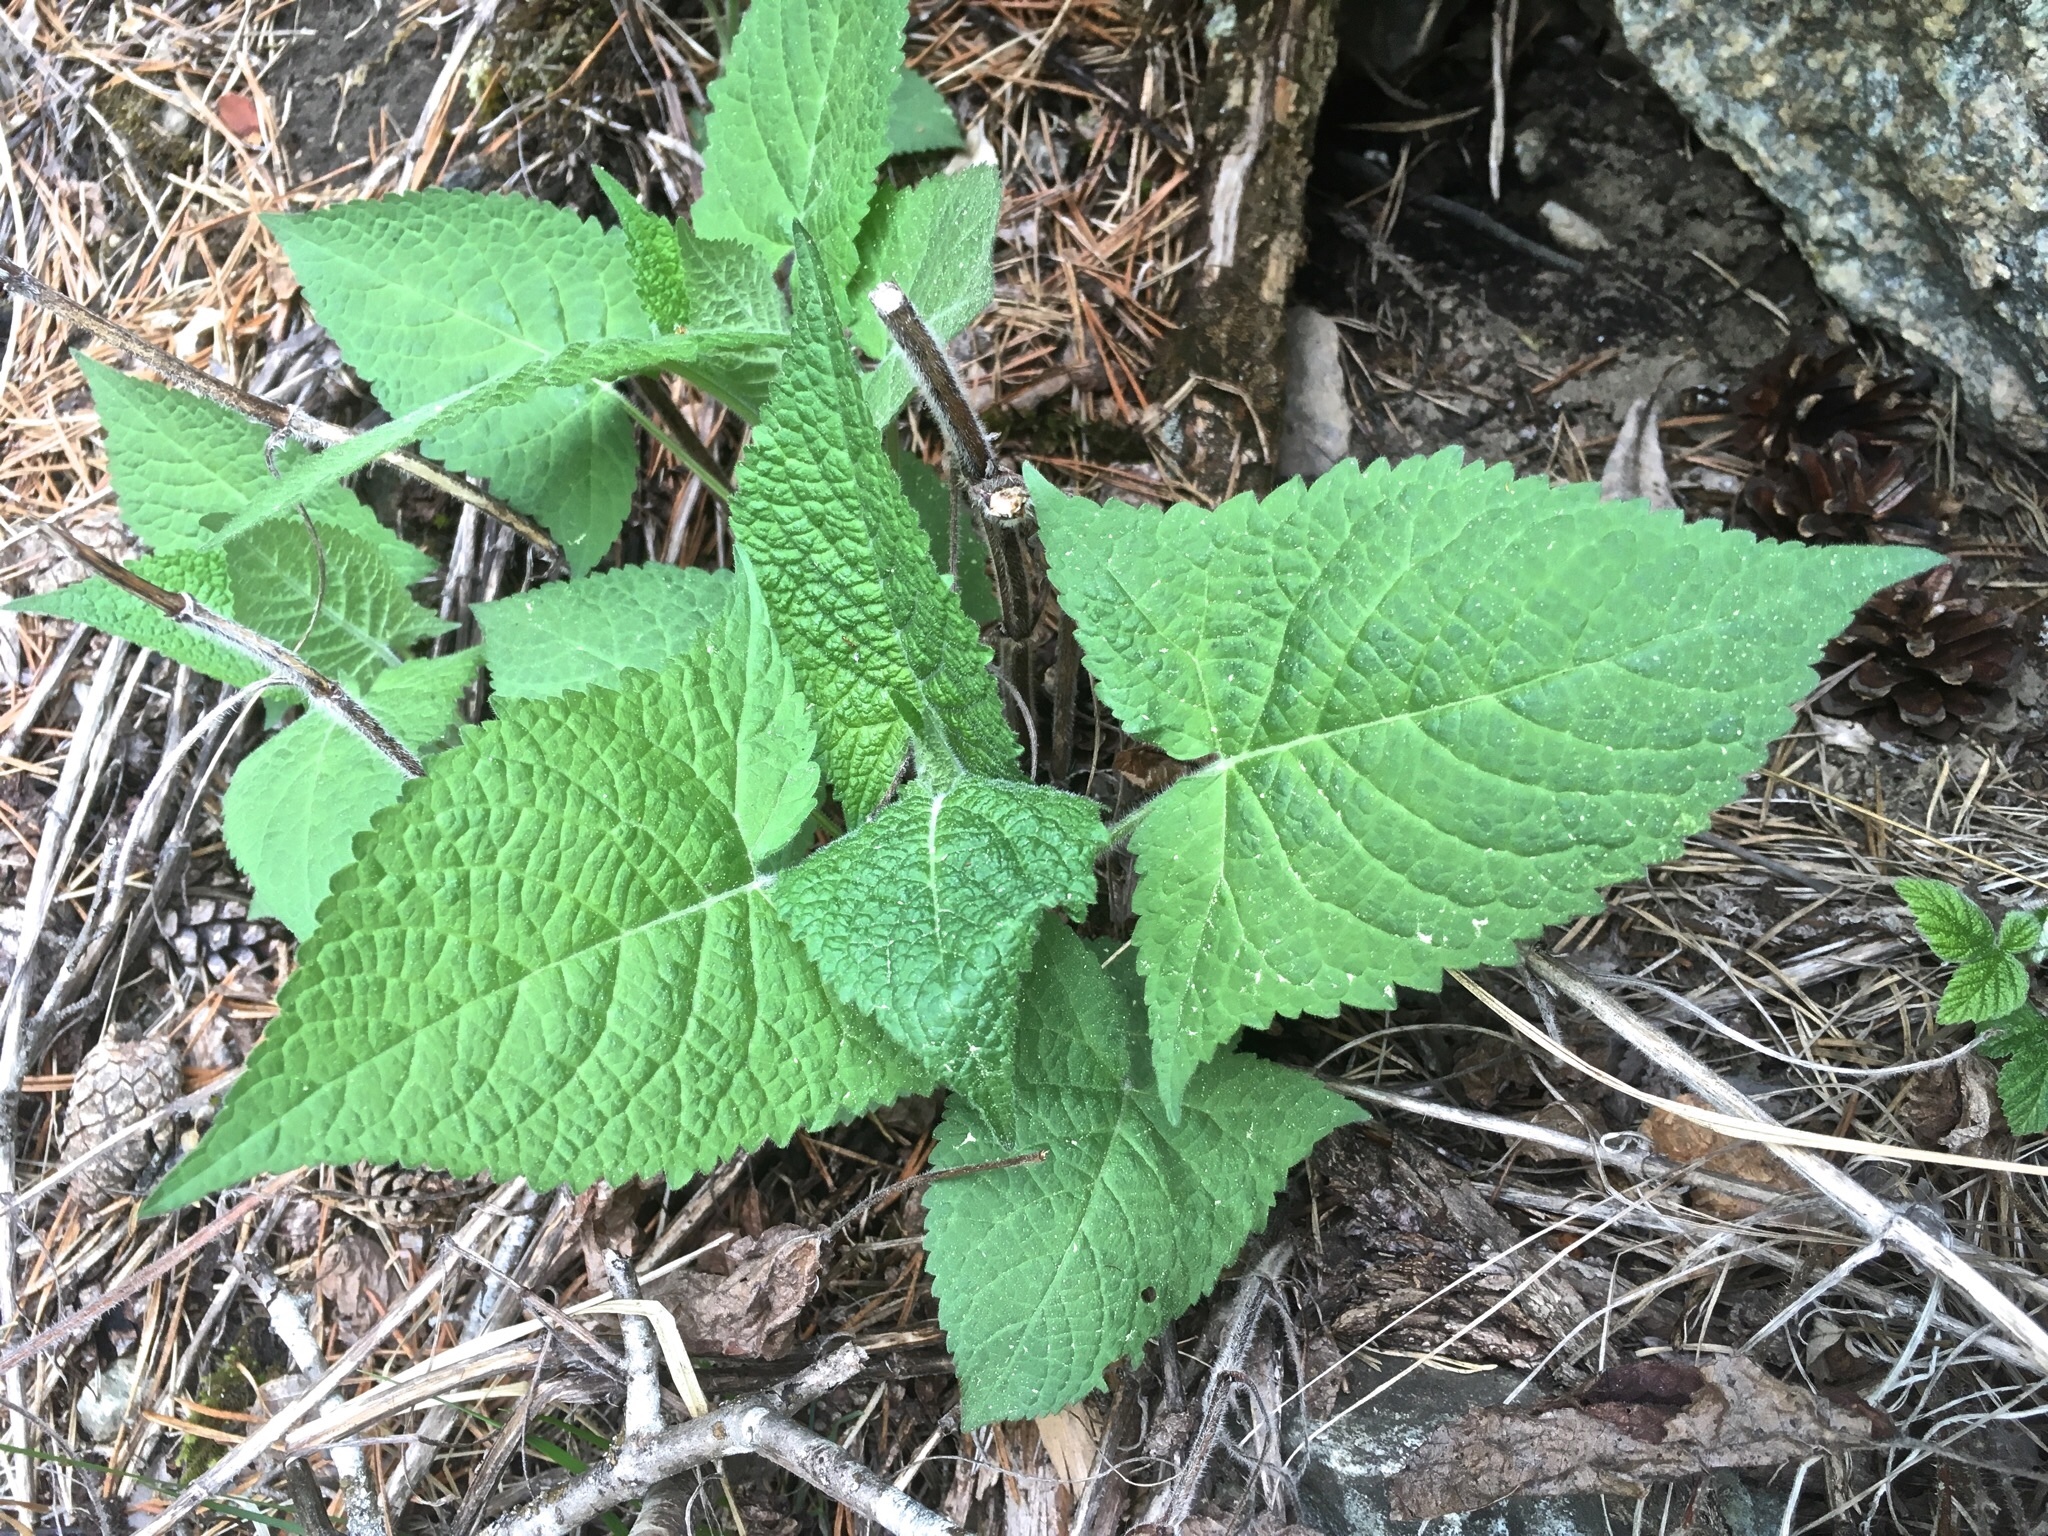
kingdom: Plantae
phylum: Tracheophyta
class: Magnoliopsida
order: Lamiales
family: Lamiaceae
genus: Salvia
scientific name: Salvia glutinosa
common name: Sticky clary
